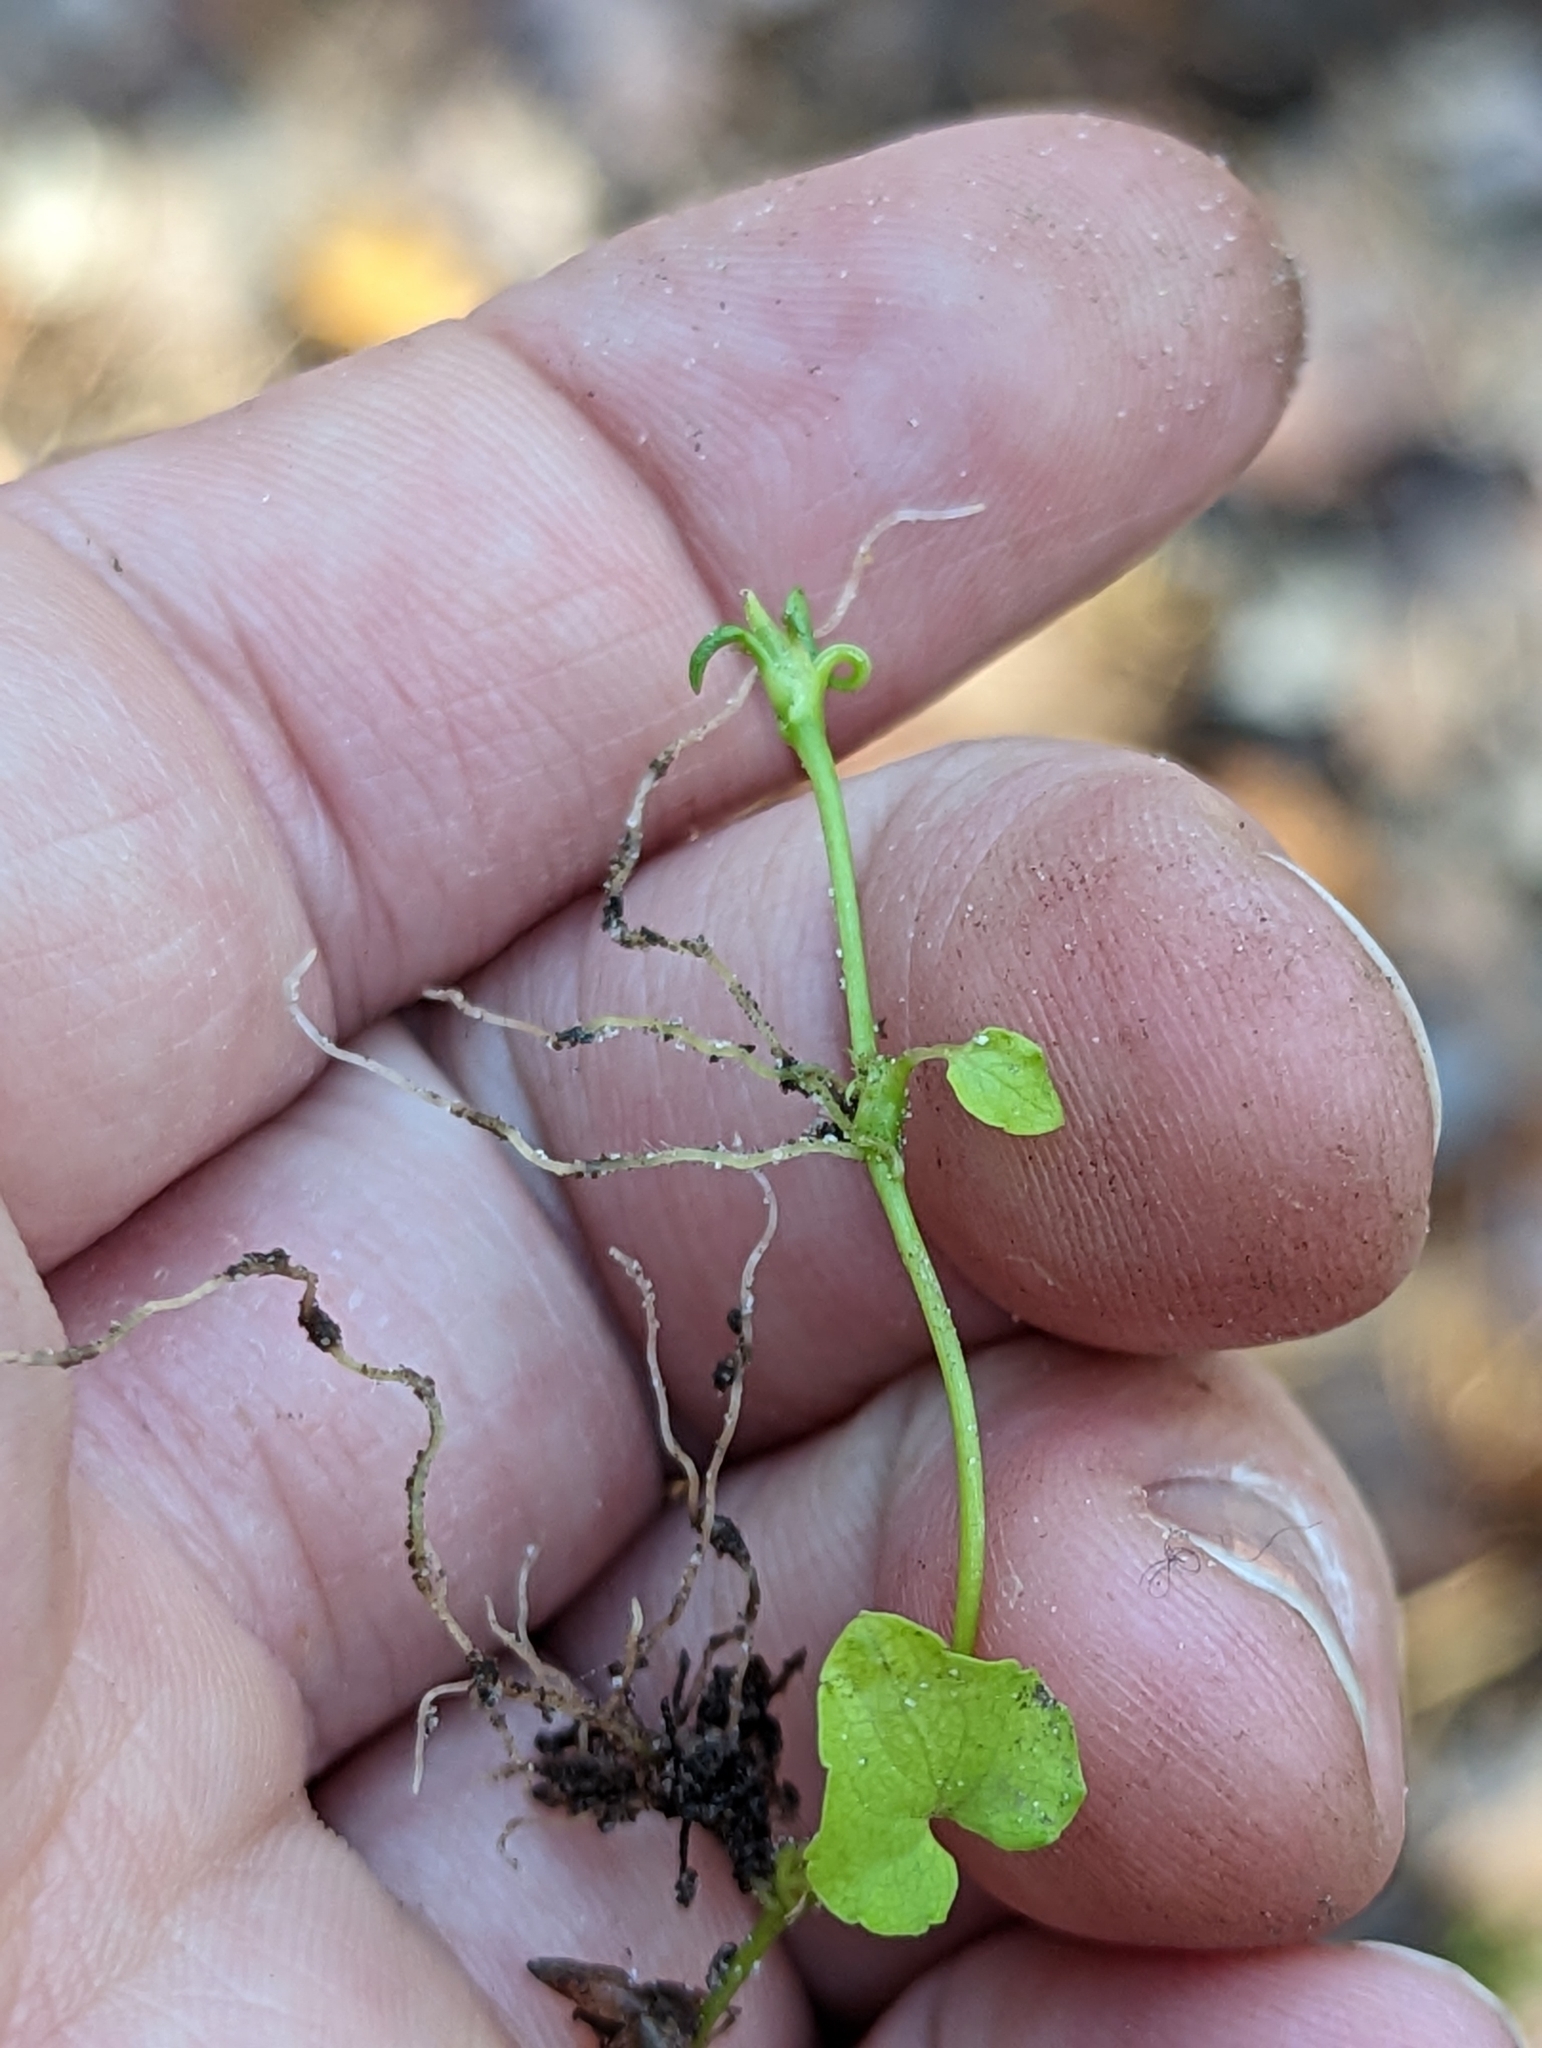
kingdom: Plantae
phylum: Tracheophyta
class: Magnoliopsida
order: Malpighiales
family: Violaceae
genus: Viola
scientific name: Viola incognita
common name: Largeleaf white violet
